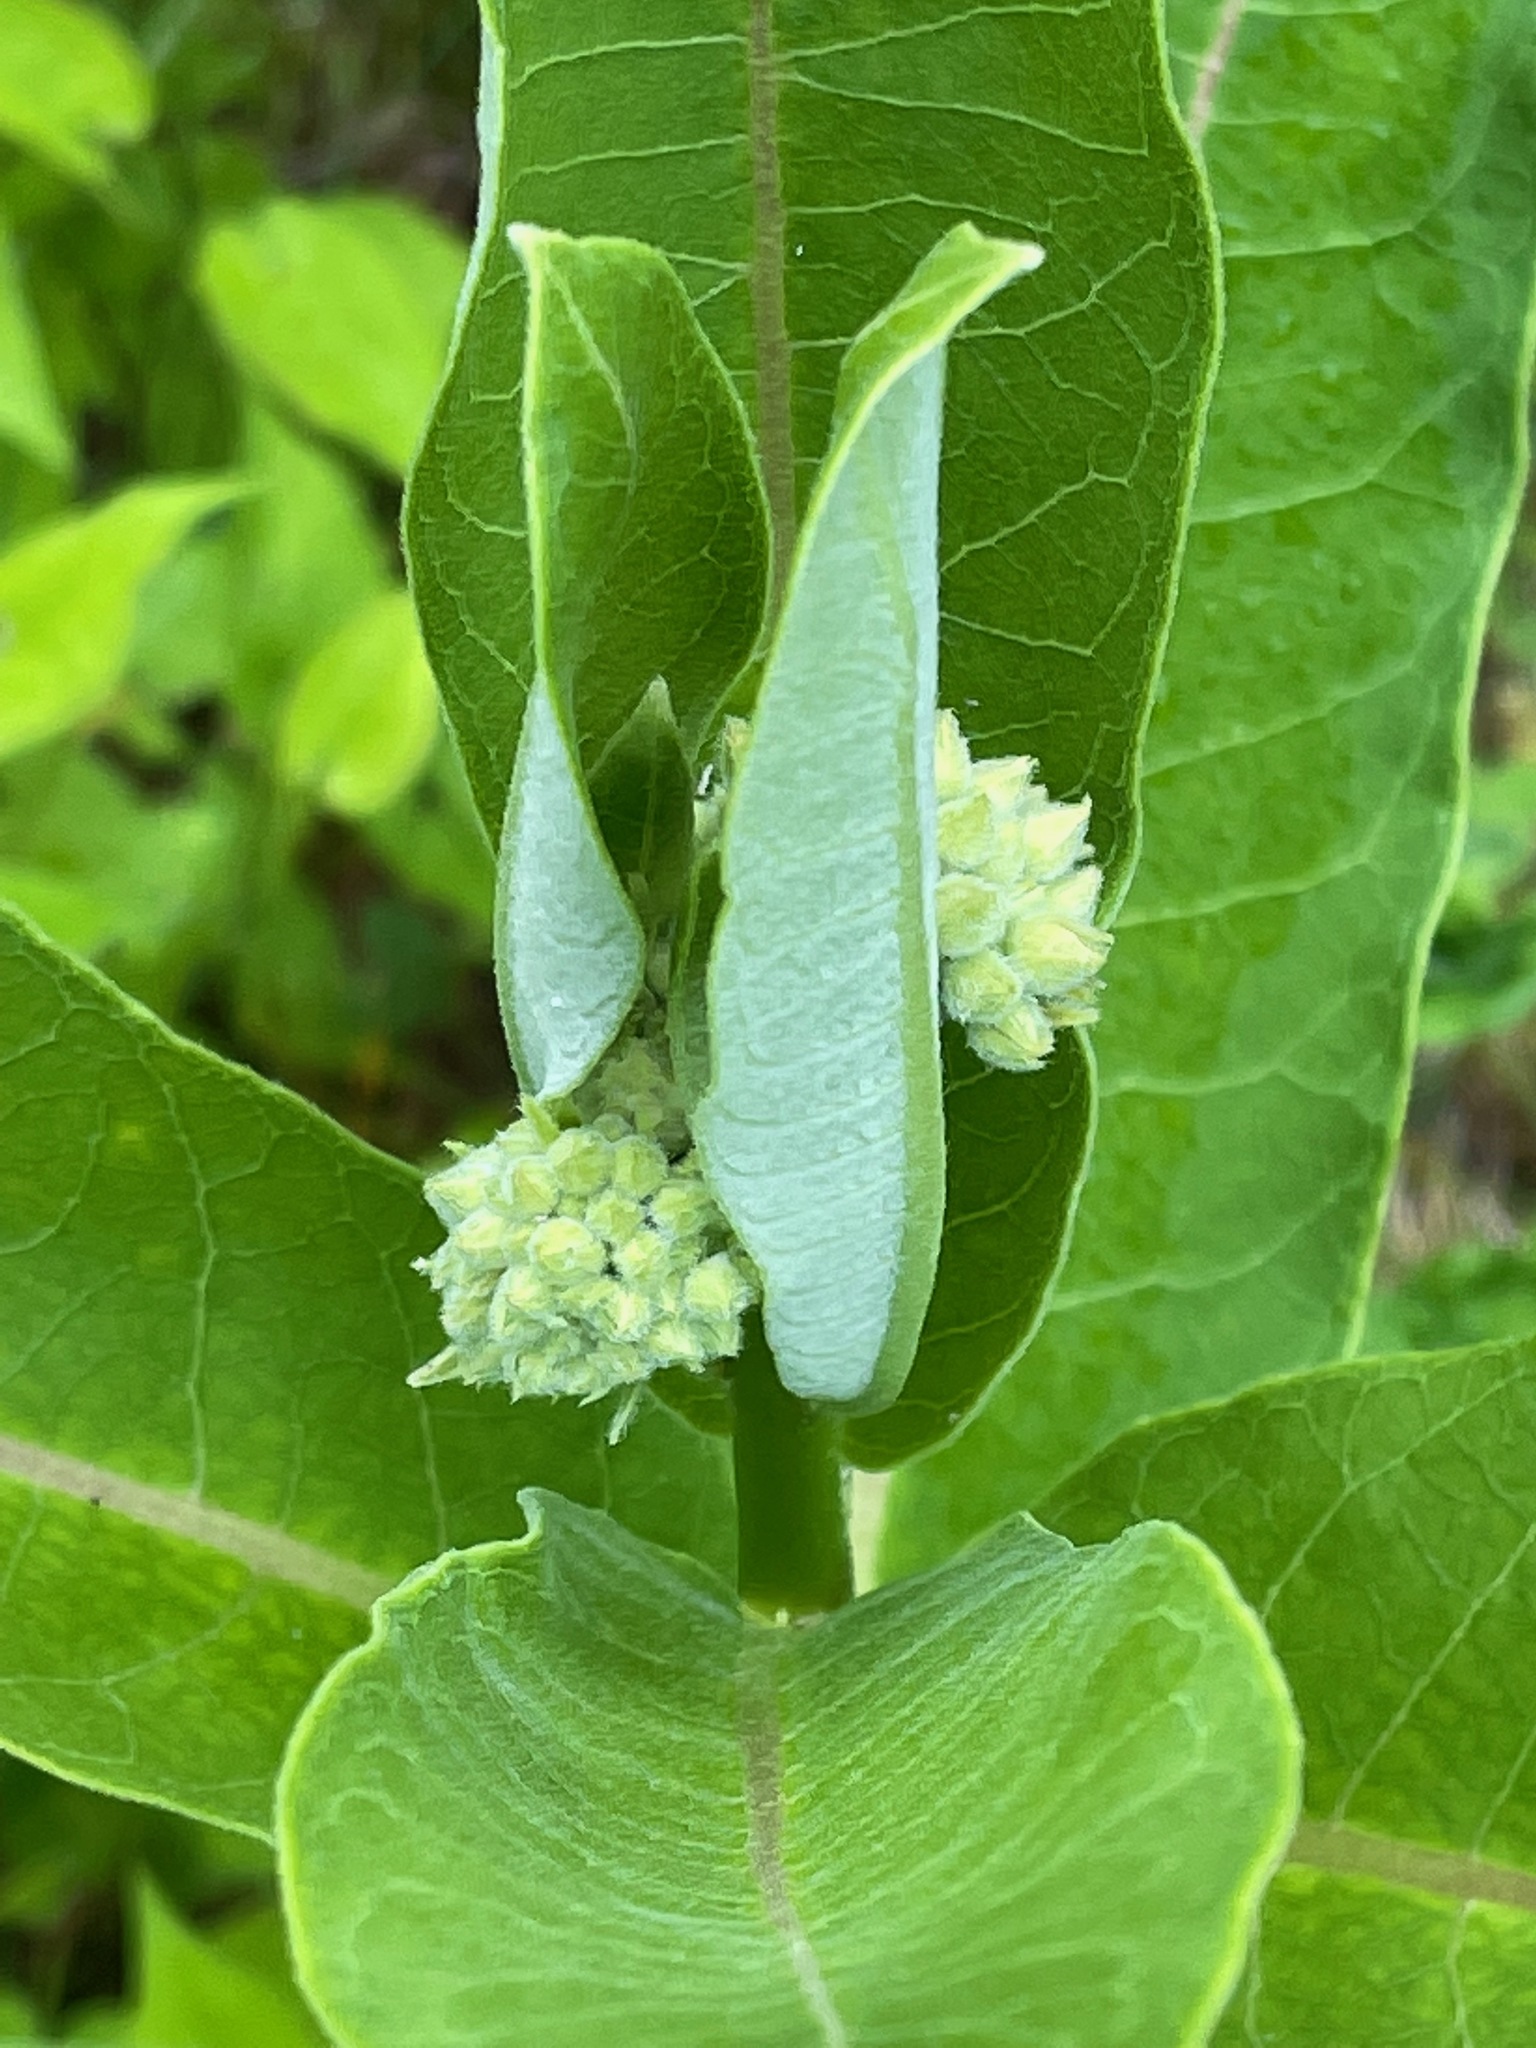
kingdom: Plantae
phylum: Tracheophyta
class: Magnoliopsida
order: Gentianales
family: Apocynaceae
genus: Asclepias
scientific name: Asclepias syriaca
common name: Common milkweed
